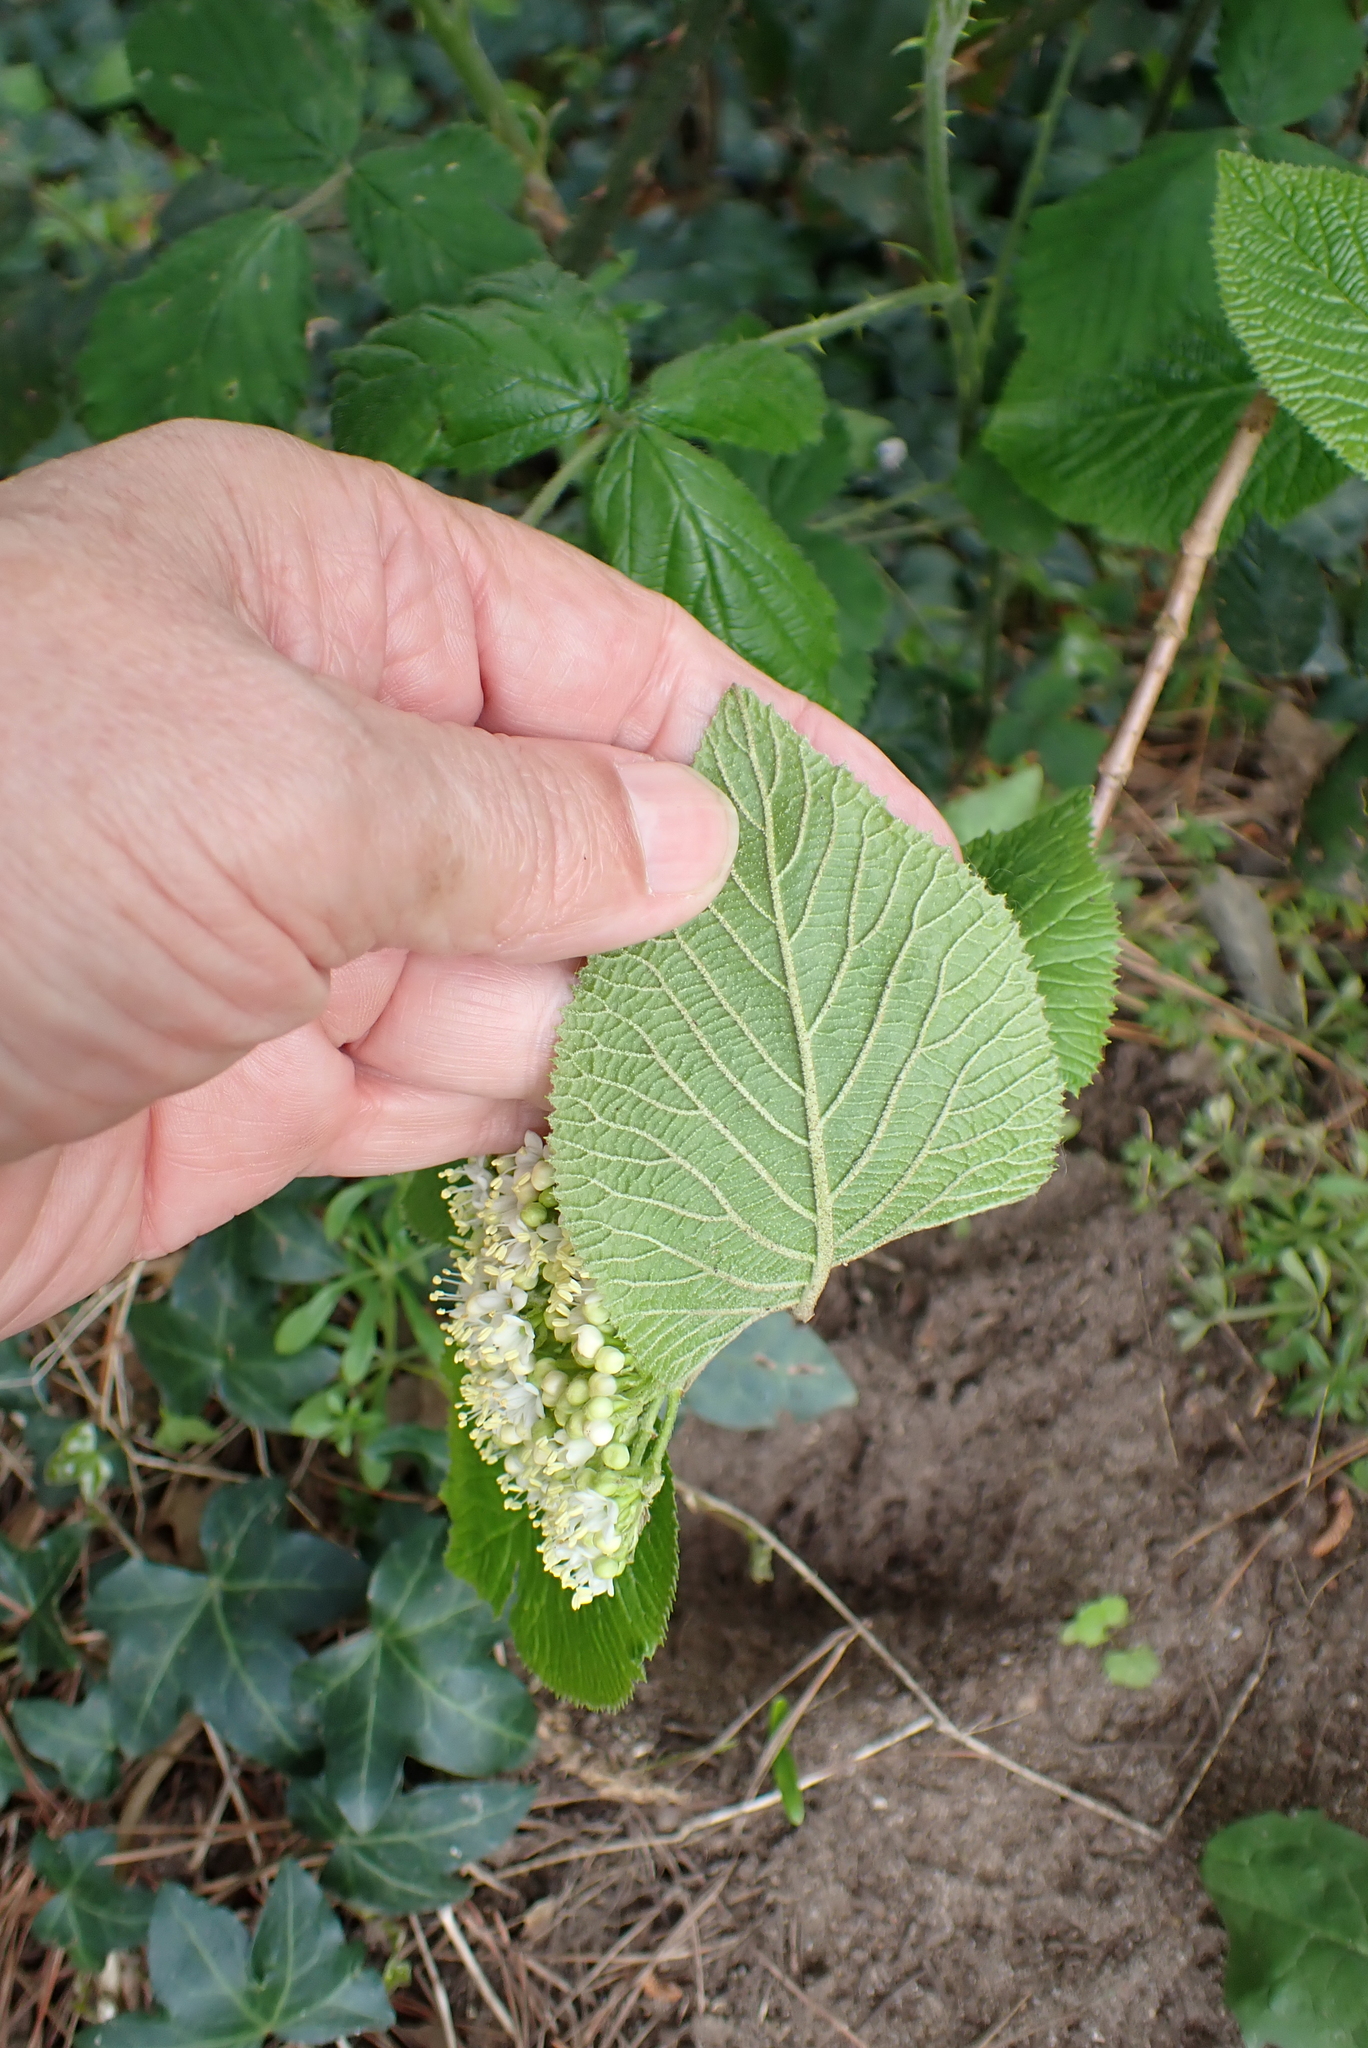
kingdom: Plantae
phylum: Tracheophyta
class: Magnoliopsida
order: Dipsacales
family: Viburnaceae
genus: Viburnum
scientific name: Viburnum lantana
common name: Wayfaring tree
